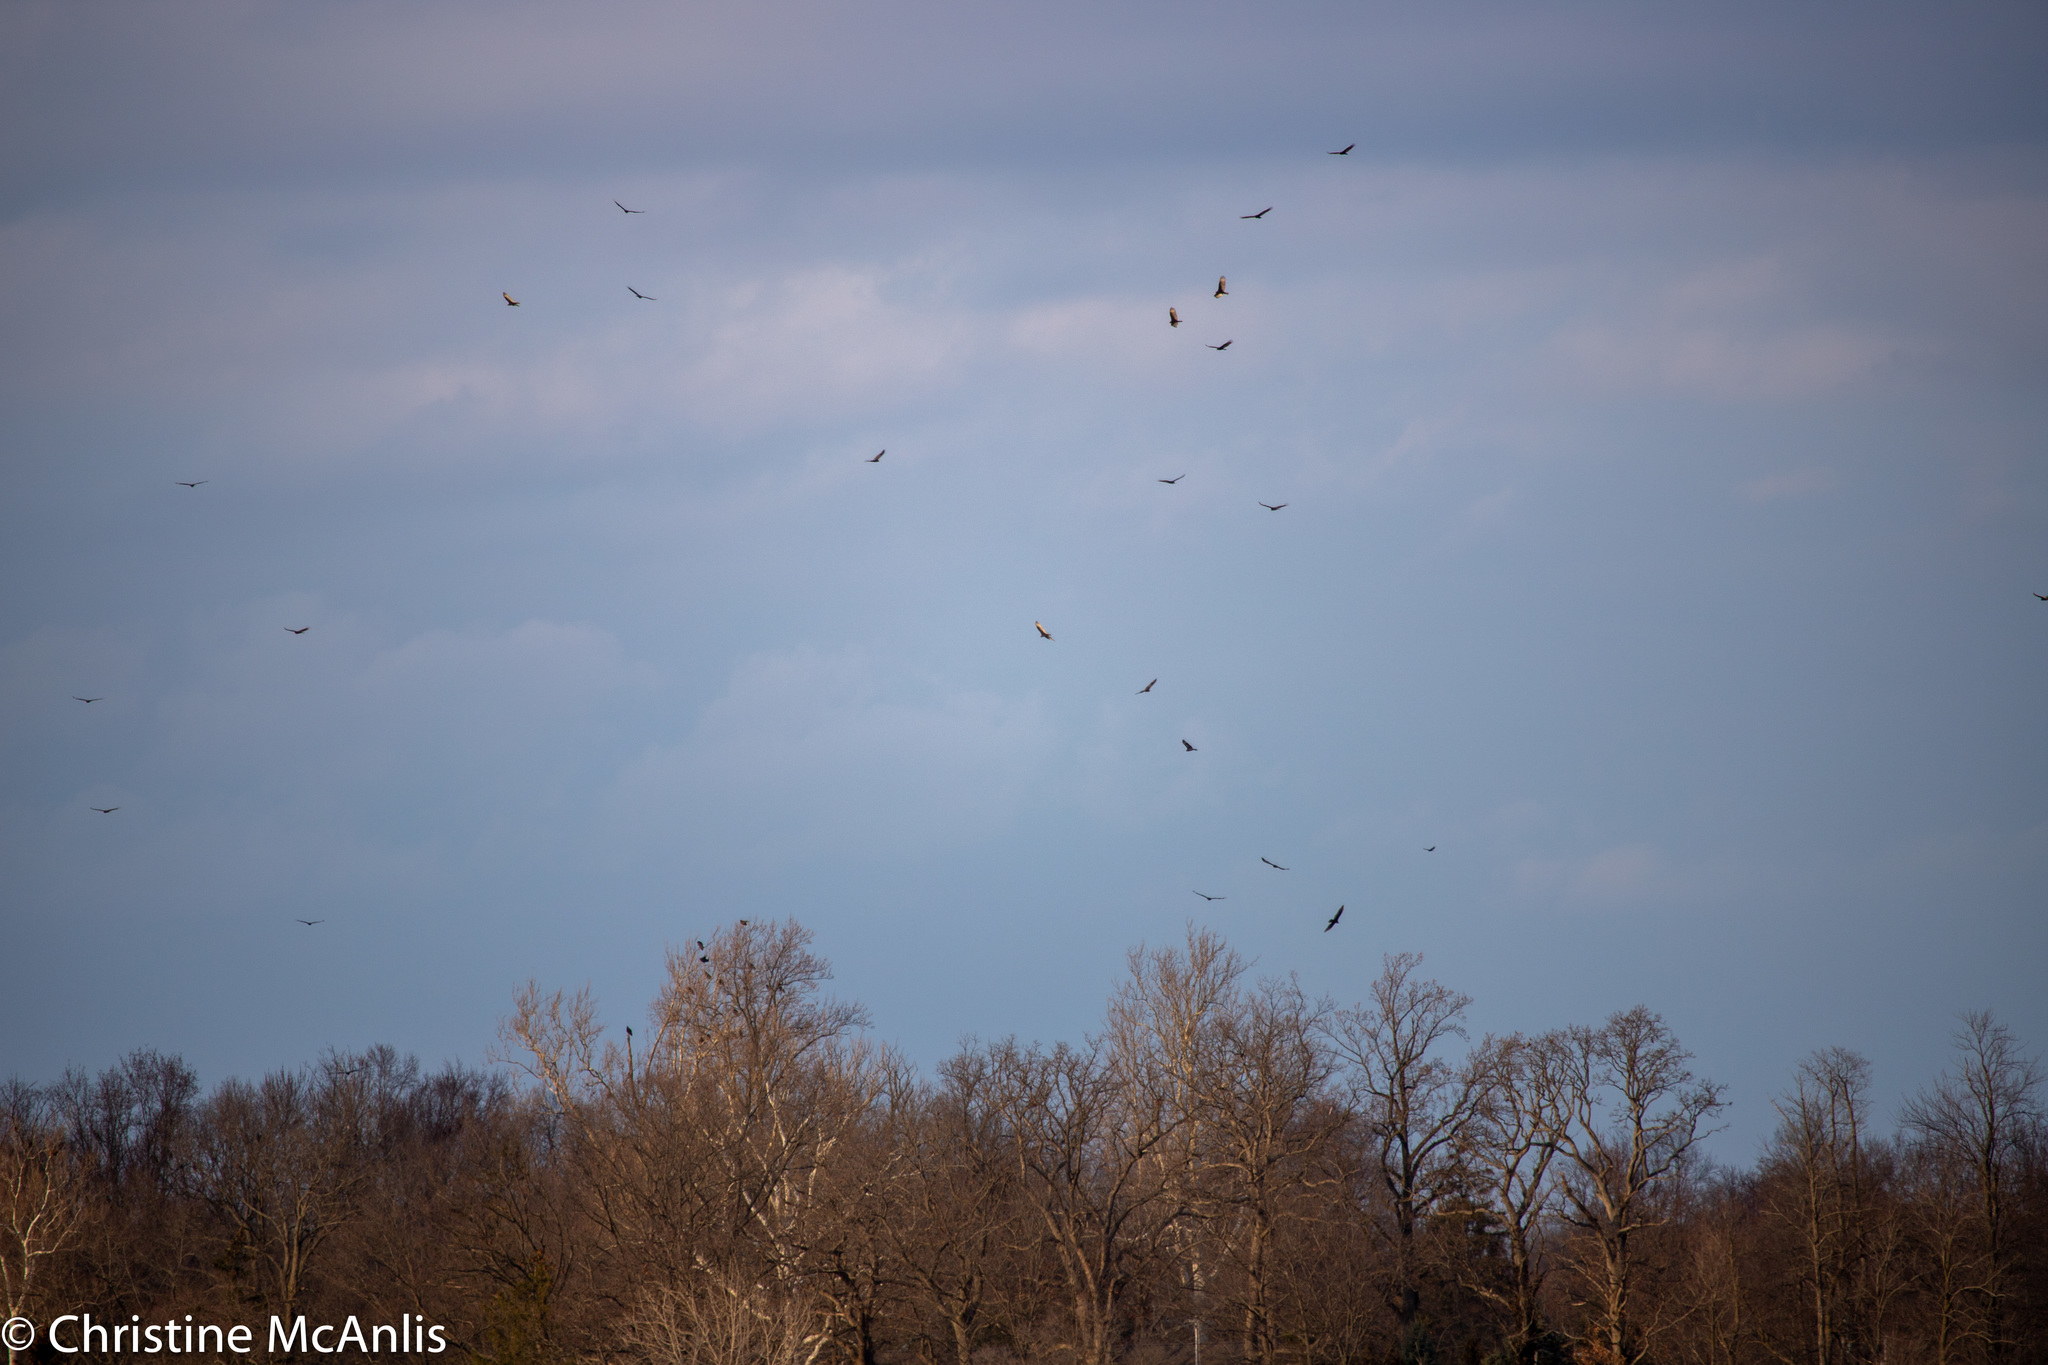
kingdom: Animalia
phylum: Chordata
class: Aves
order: Accipitriformes
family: Cathartidae
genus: Cathartes
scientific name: Cathartes aura
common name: Turkey vulture
